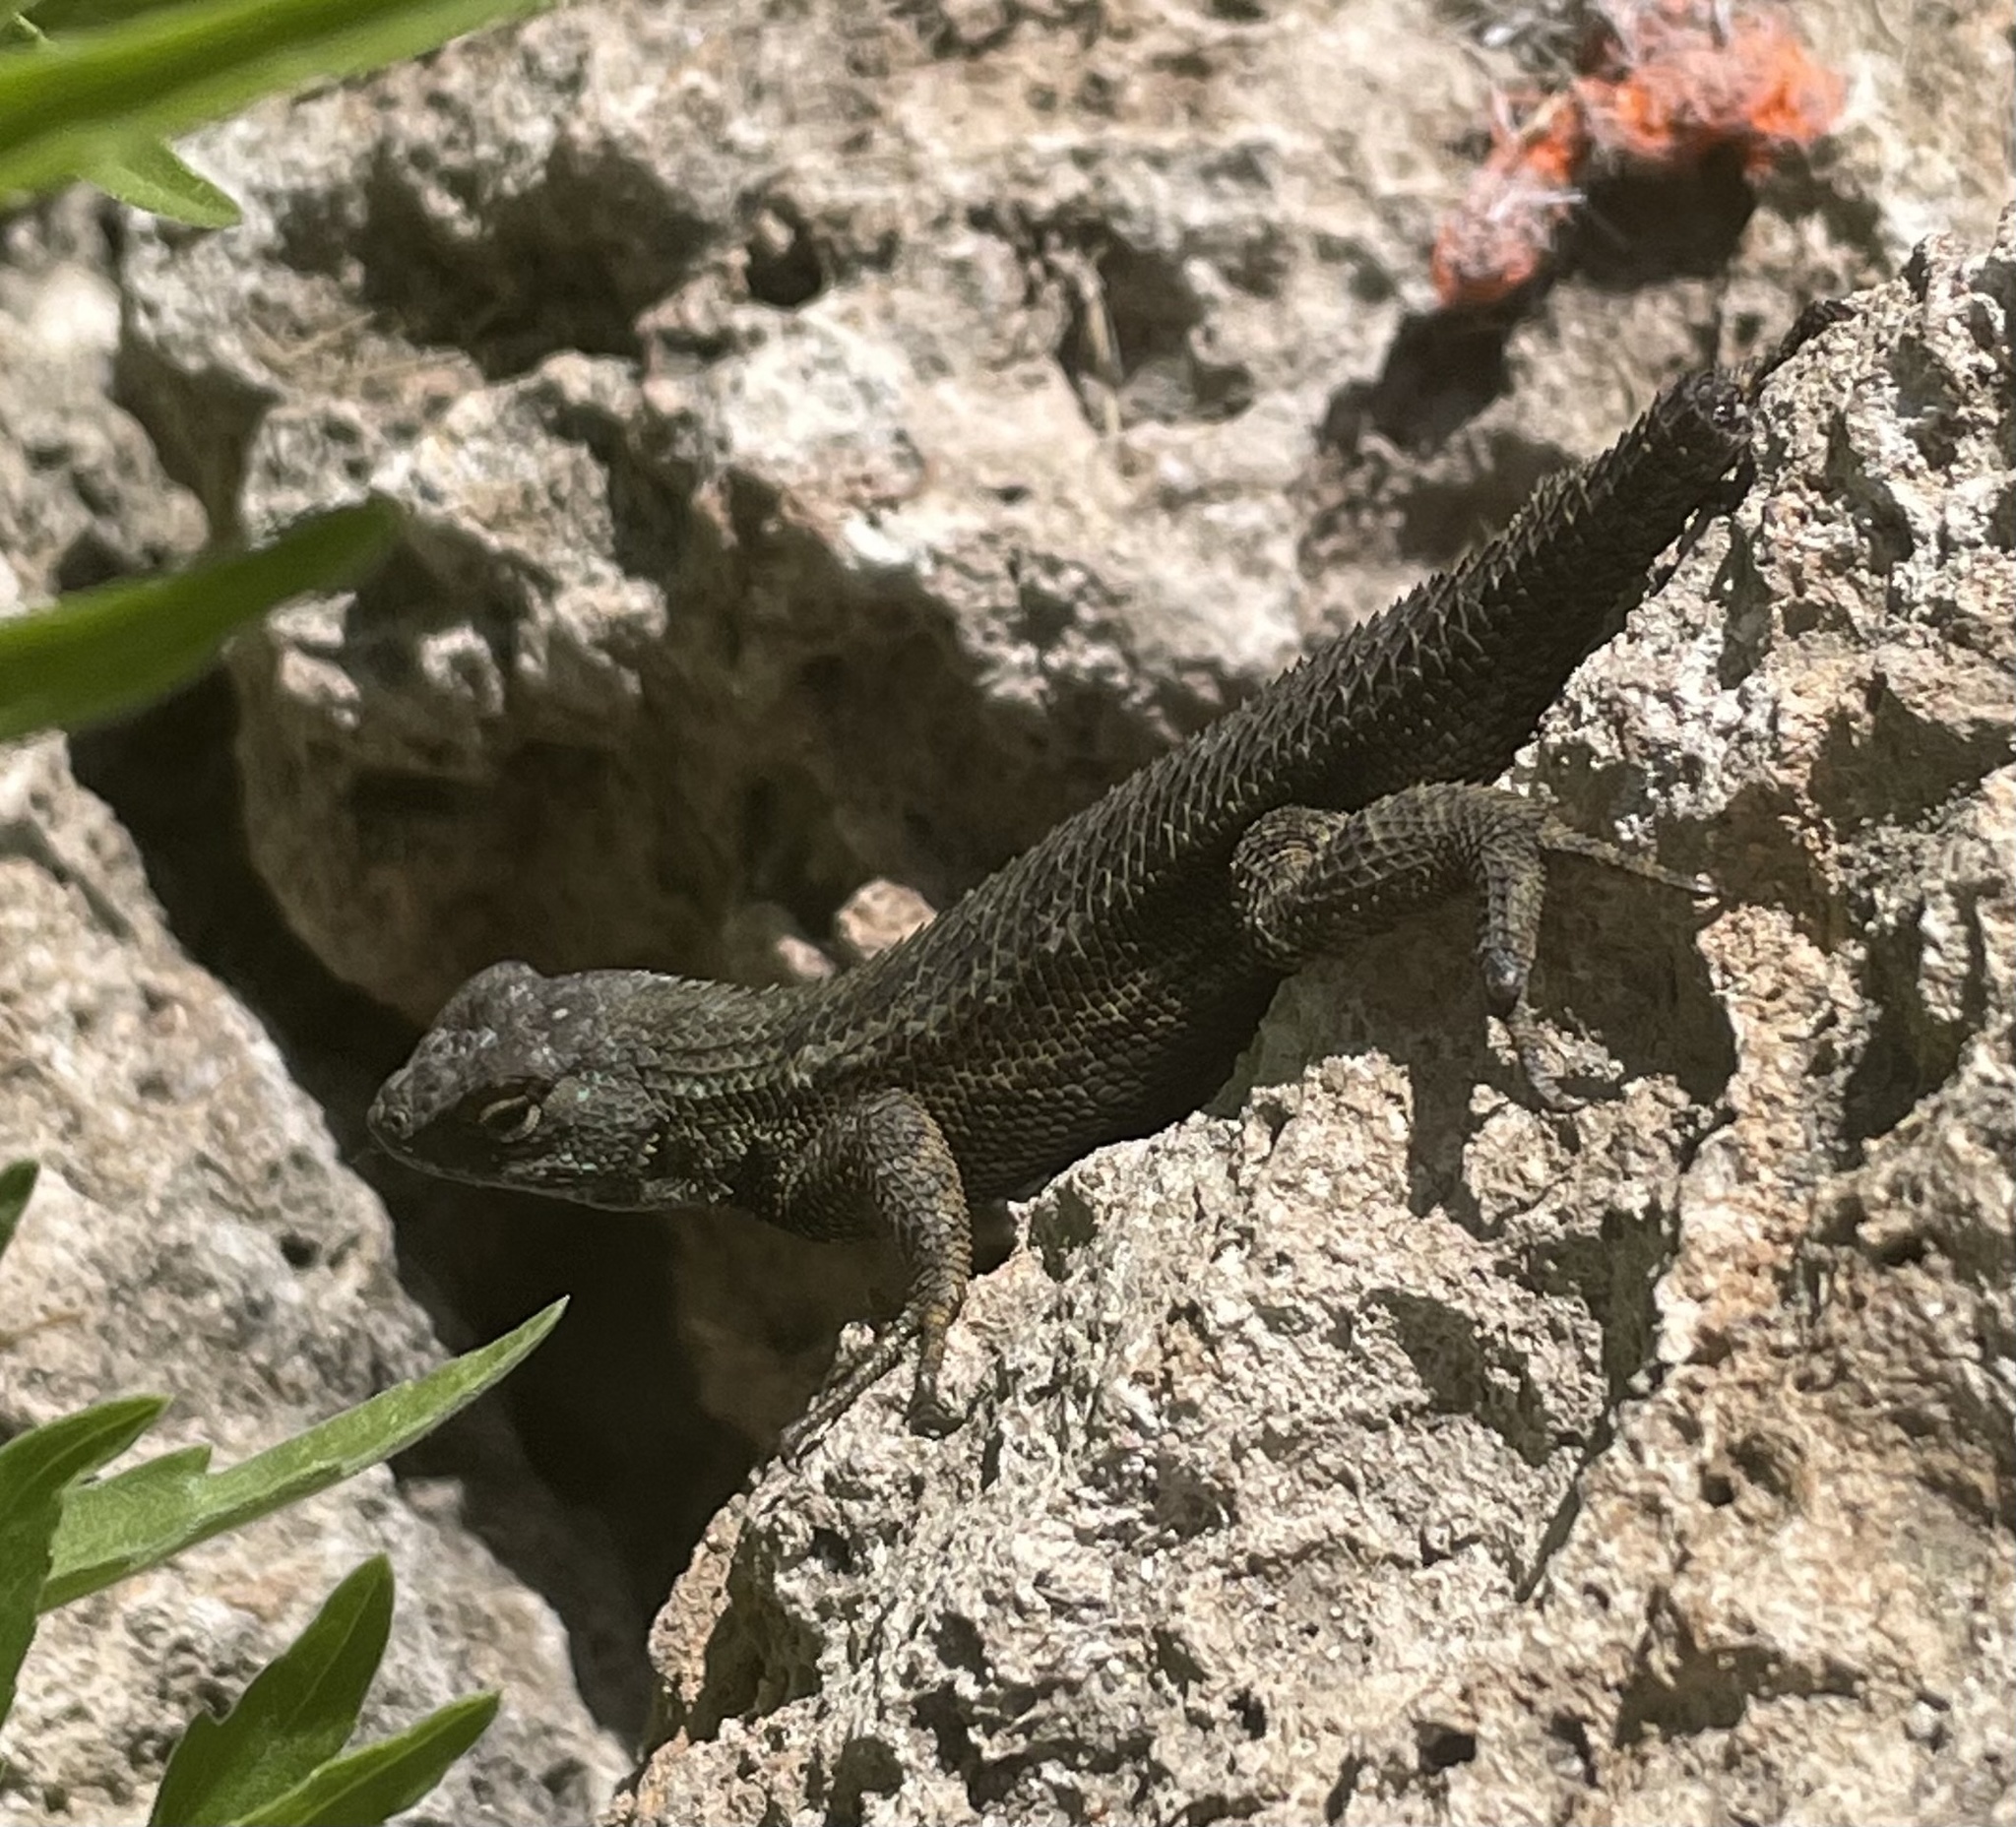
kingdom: Animalia
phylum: Chordata
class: Squamata
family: Phrynosomatidae
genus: Sceloporus
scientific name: Sceloporus occidentalis
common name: Western fence lizard
